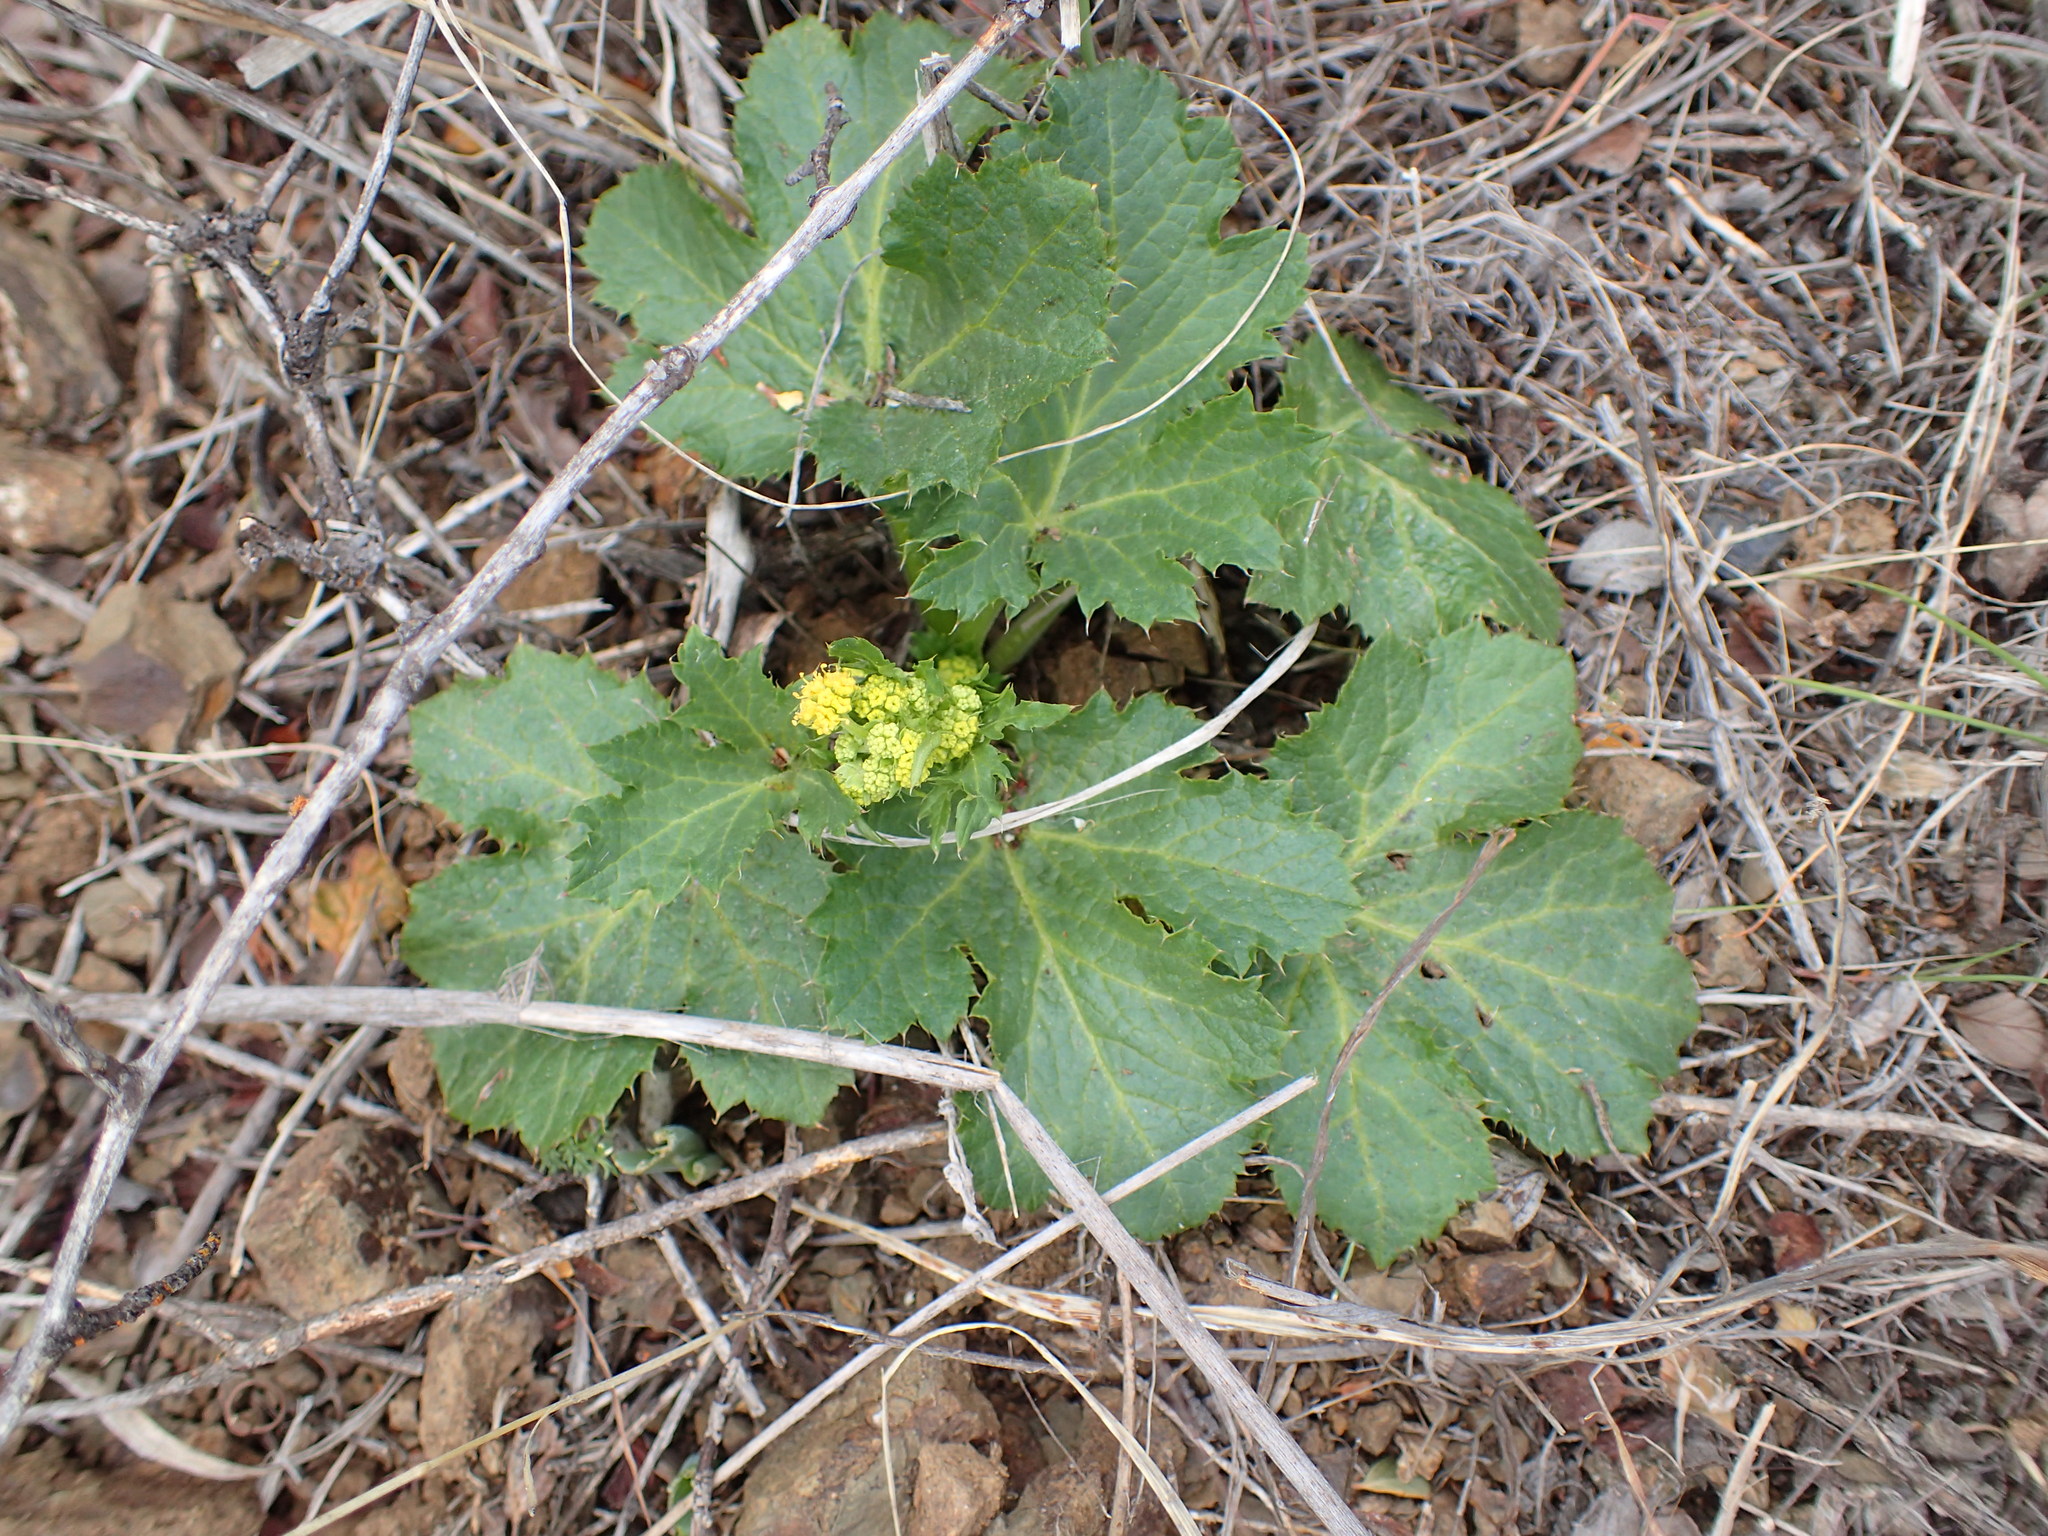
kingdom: Plantae
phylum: Tracheophyta
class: Magnoliopsida
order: Apiales
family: Apiaceae
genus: Sanicula
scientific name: Sanicula crassicaulis
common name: Western snakeroot
